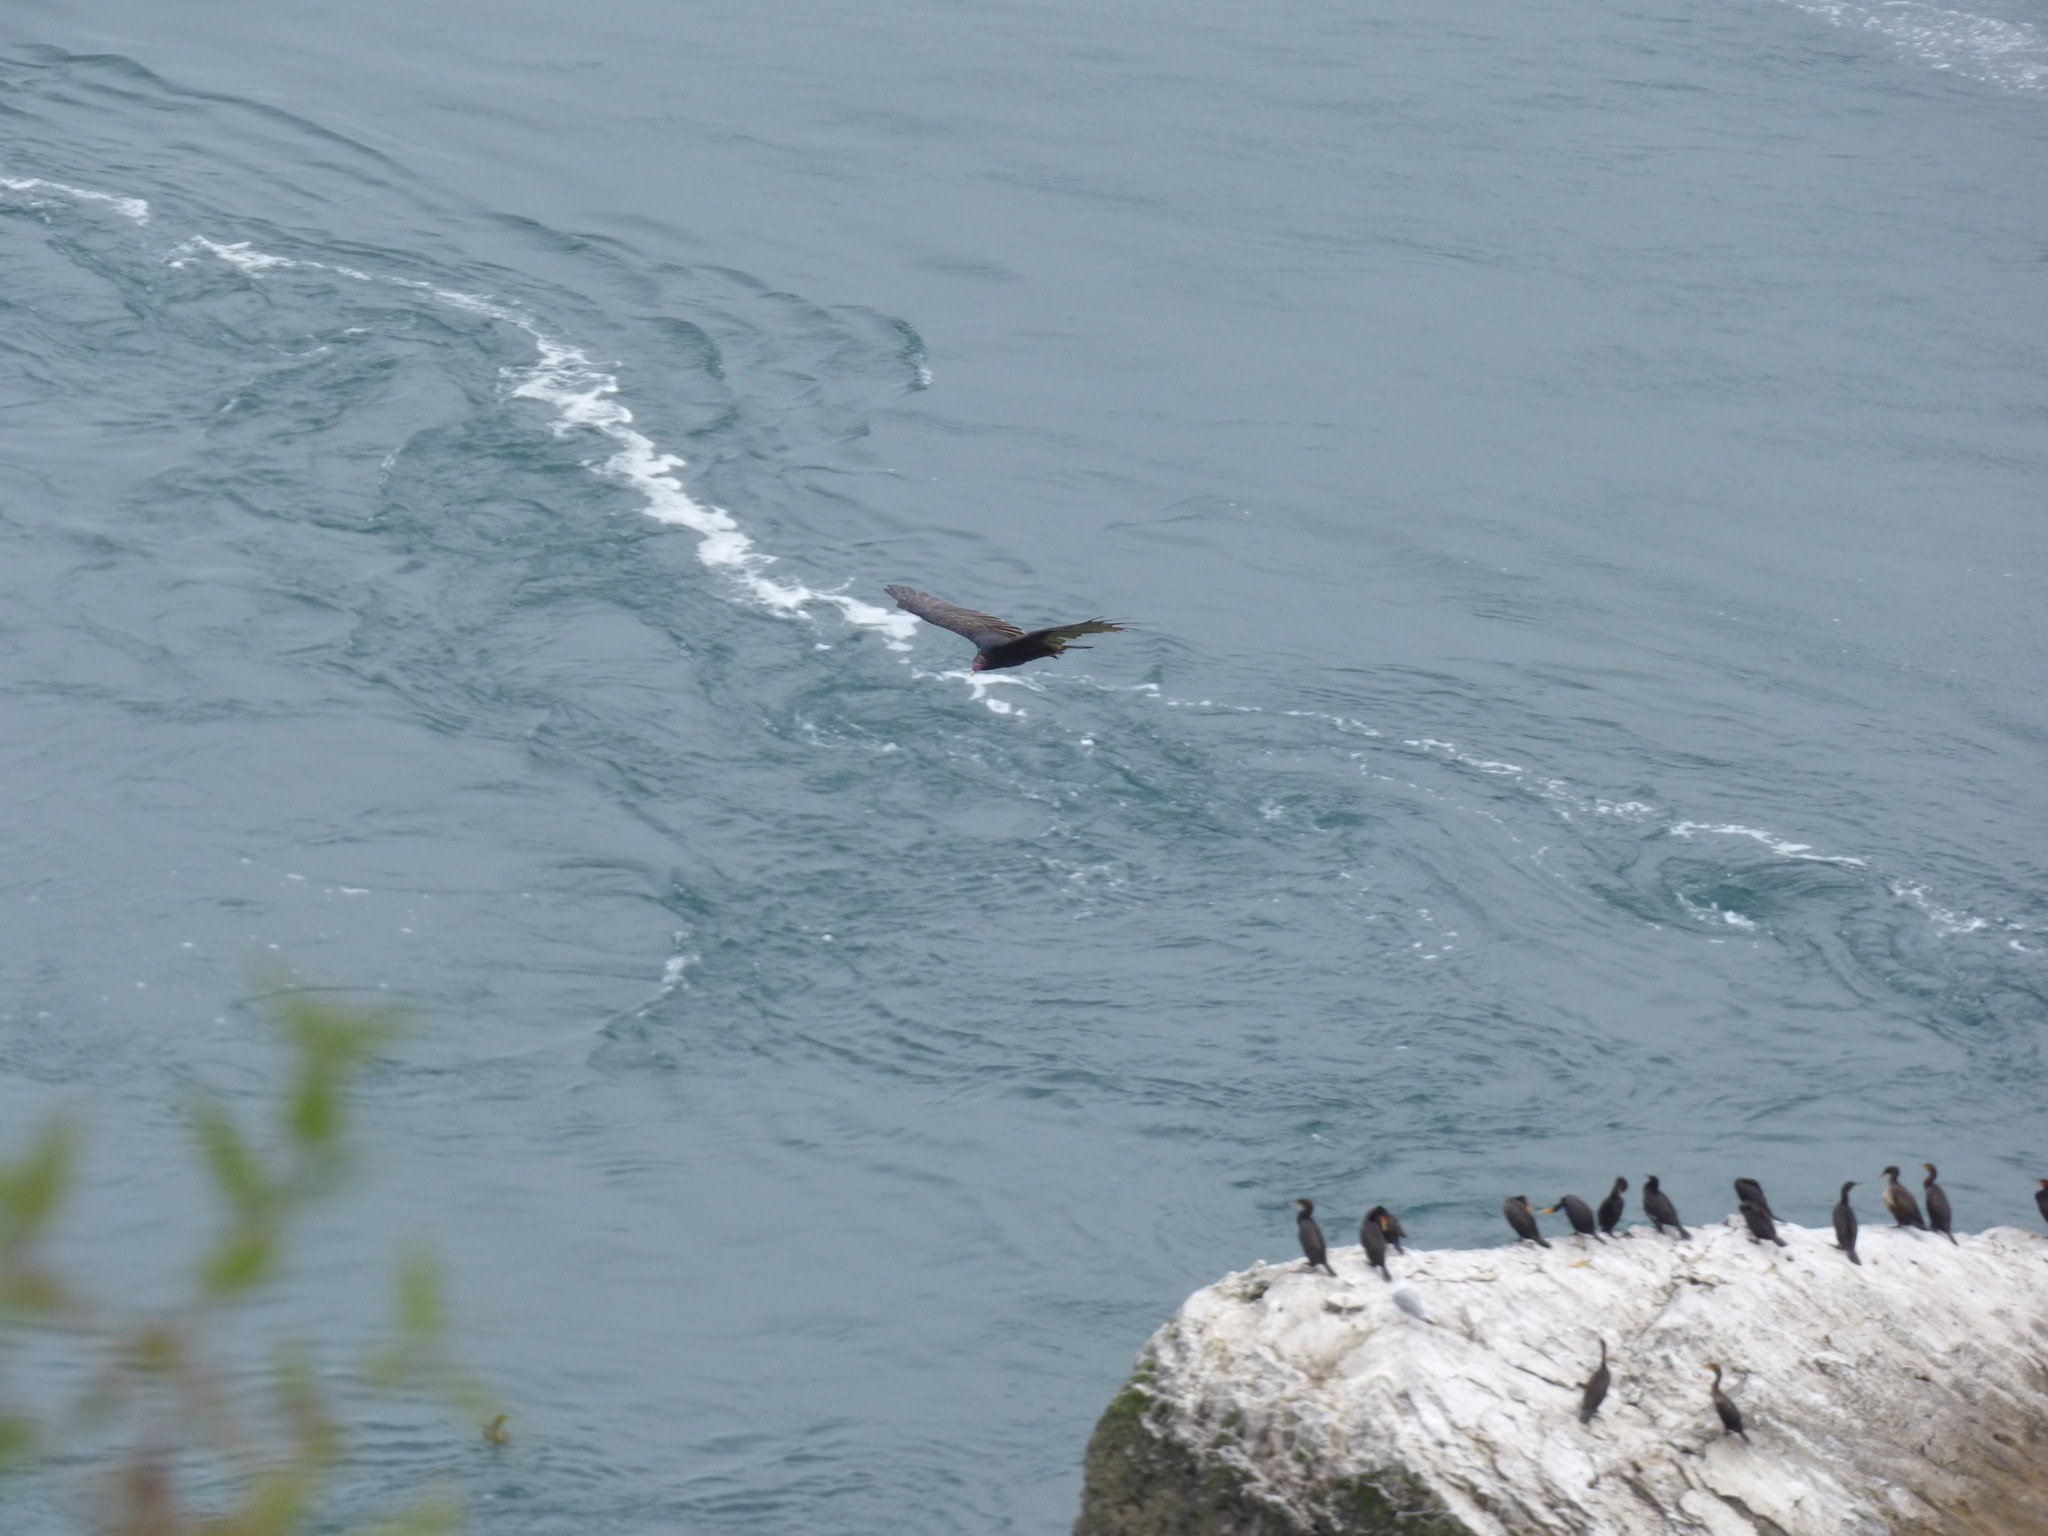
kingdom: Animalia
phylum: Chordata
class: Aves
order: Accipitriformes
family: Cathartidae
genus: Cathartes
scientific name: Cathartes aura
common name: Turkey vulture
